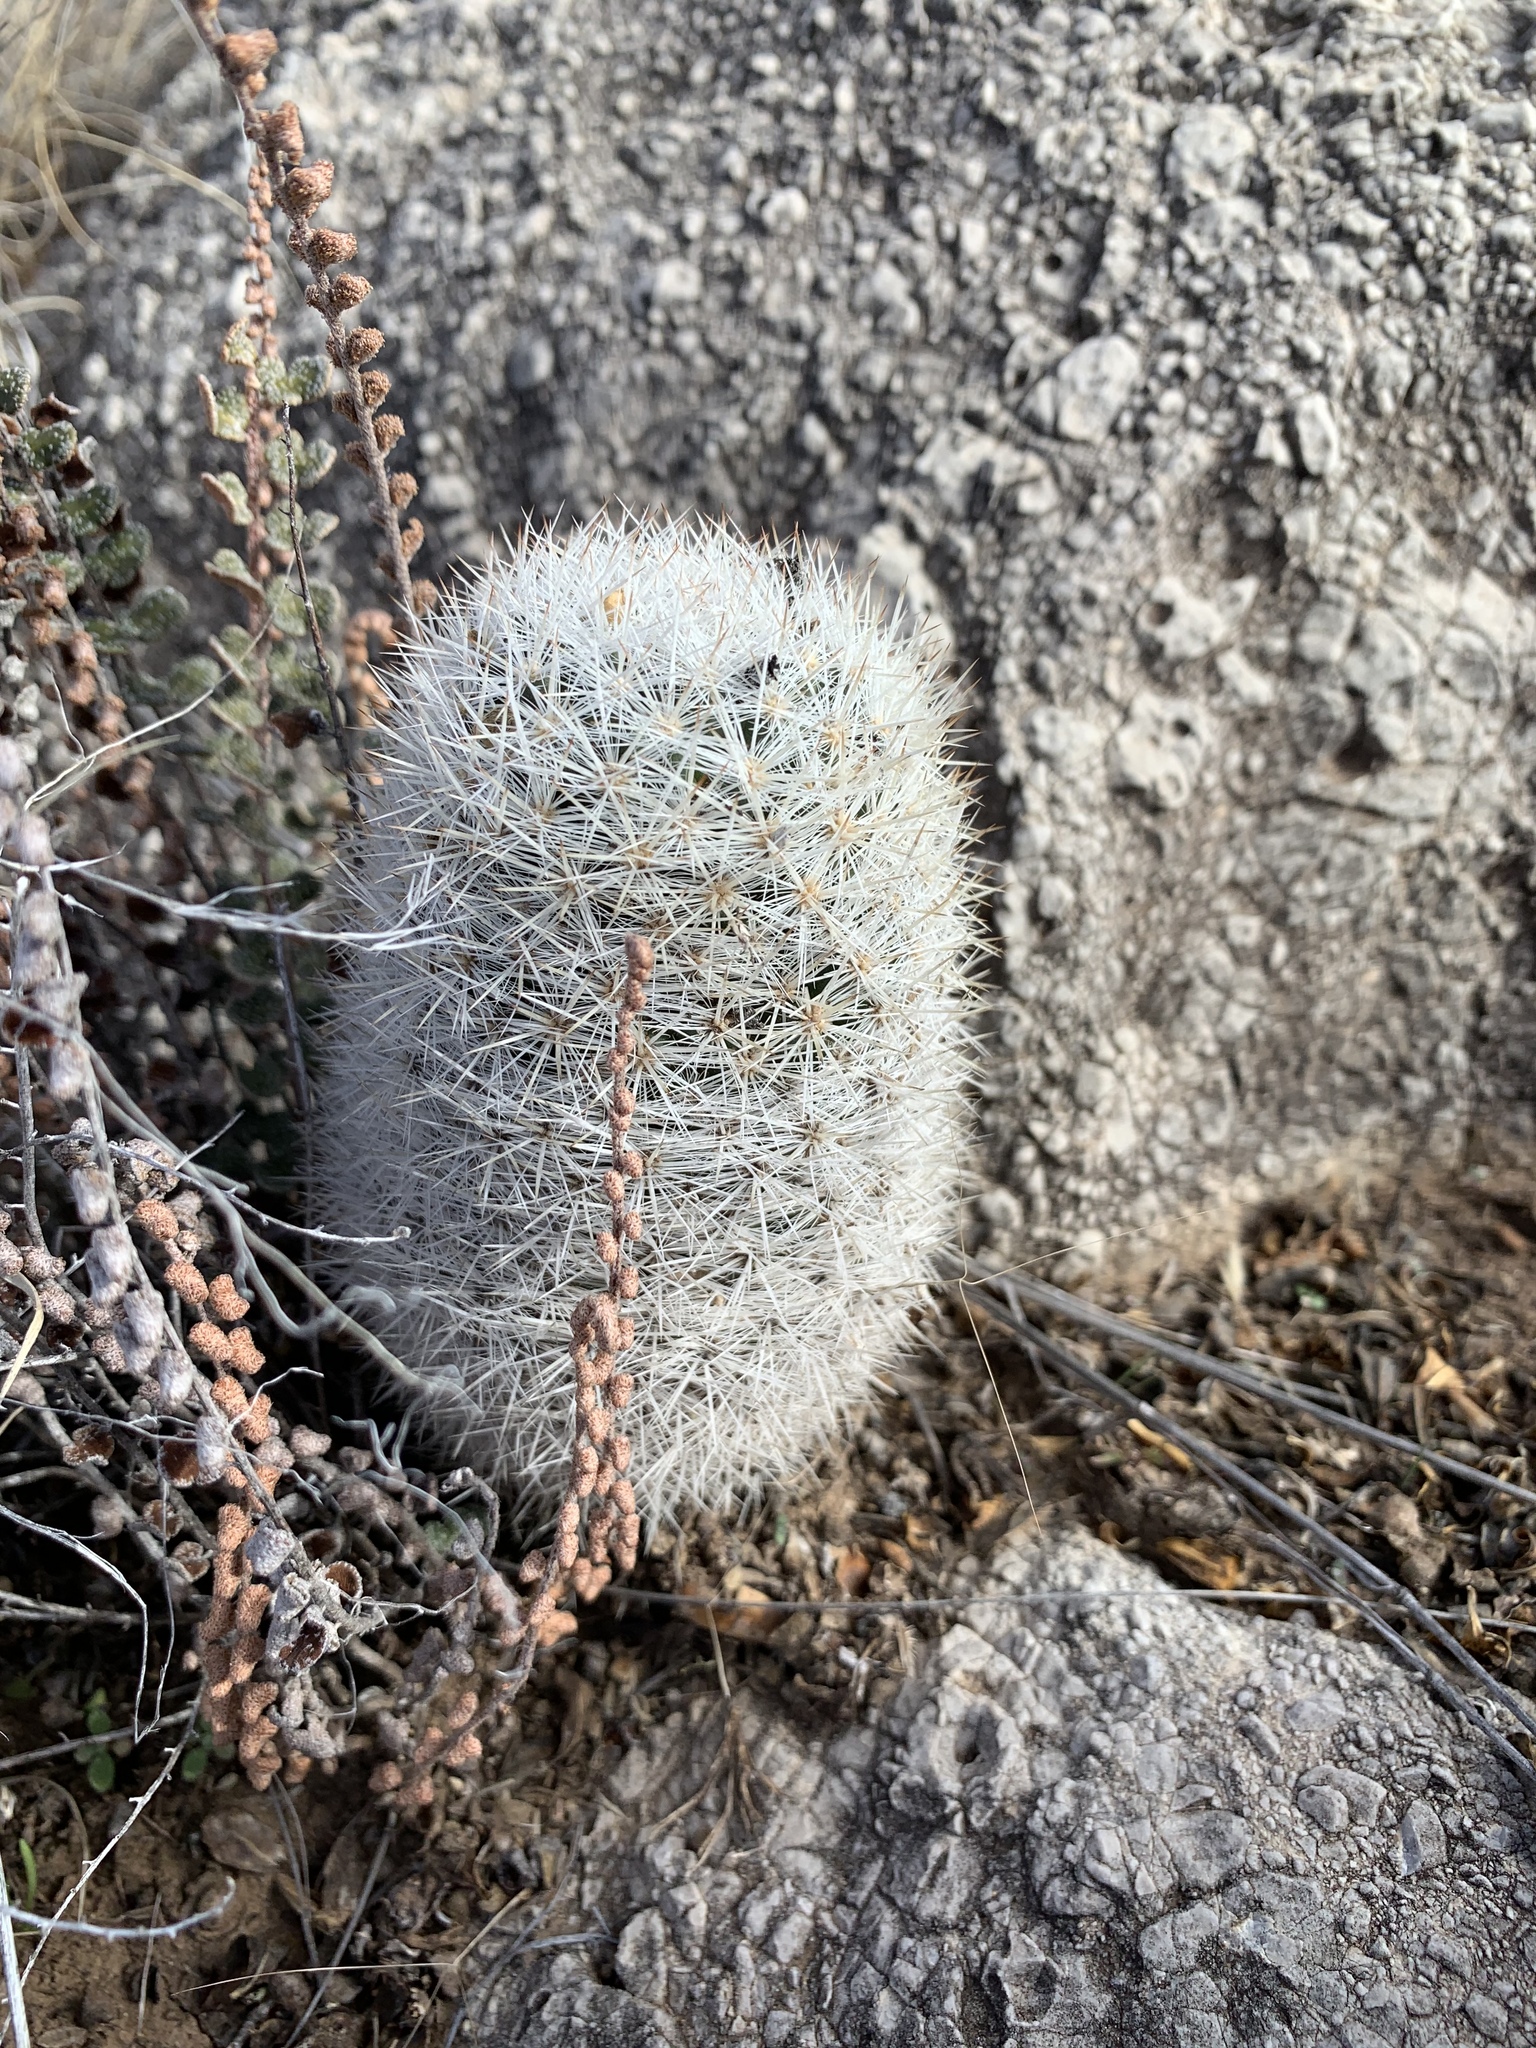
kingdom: Plantae
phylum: Tracheophyta
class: Magnoliopsida
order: Caryophyllales
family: Cactaceae
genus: Pelecyphora
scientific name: Pelecyphora sneedii
